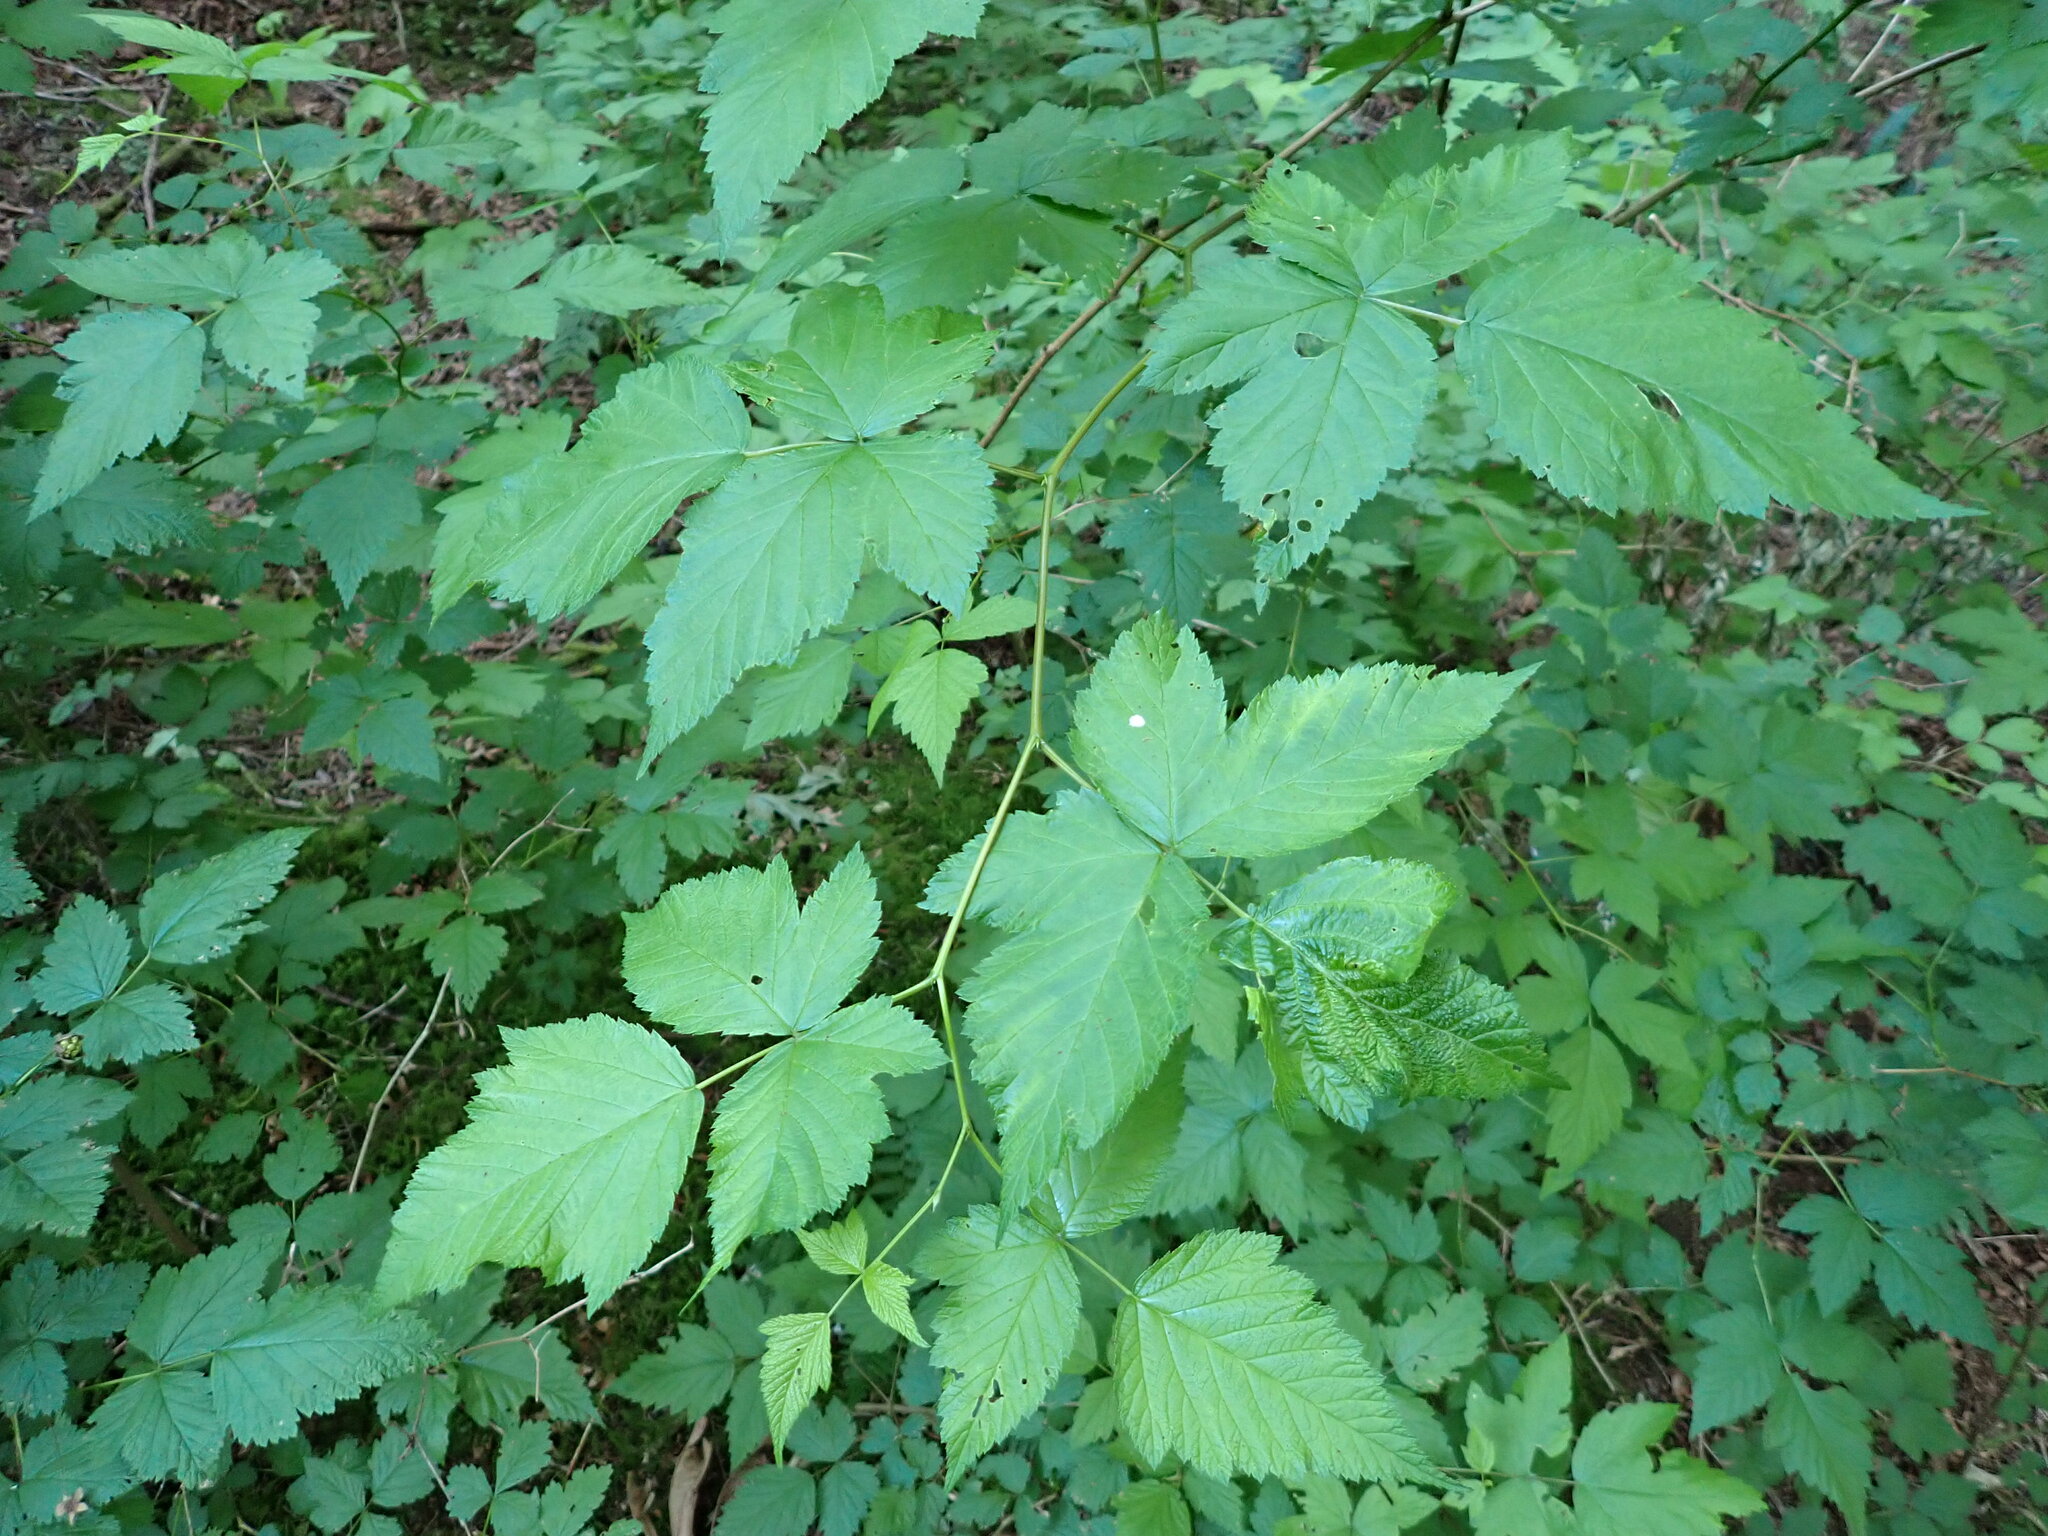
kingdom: Plantae
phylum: Tracheophyta
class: Magnoliopsida
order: Rosales
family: Rosaceae
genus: Rubus
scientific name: Rubus spectabilis
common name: Salmonberry
